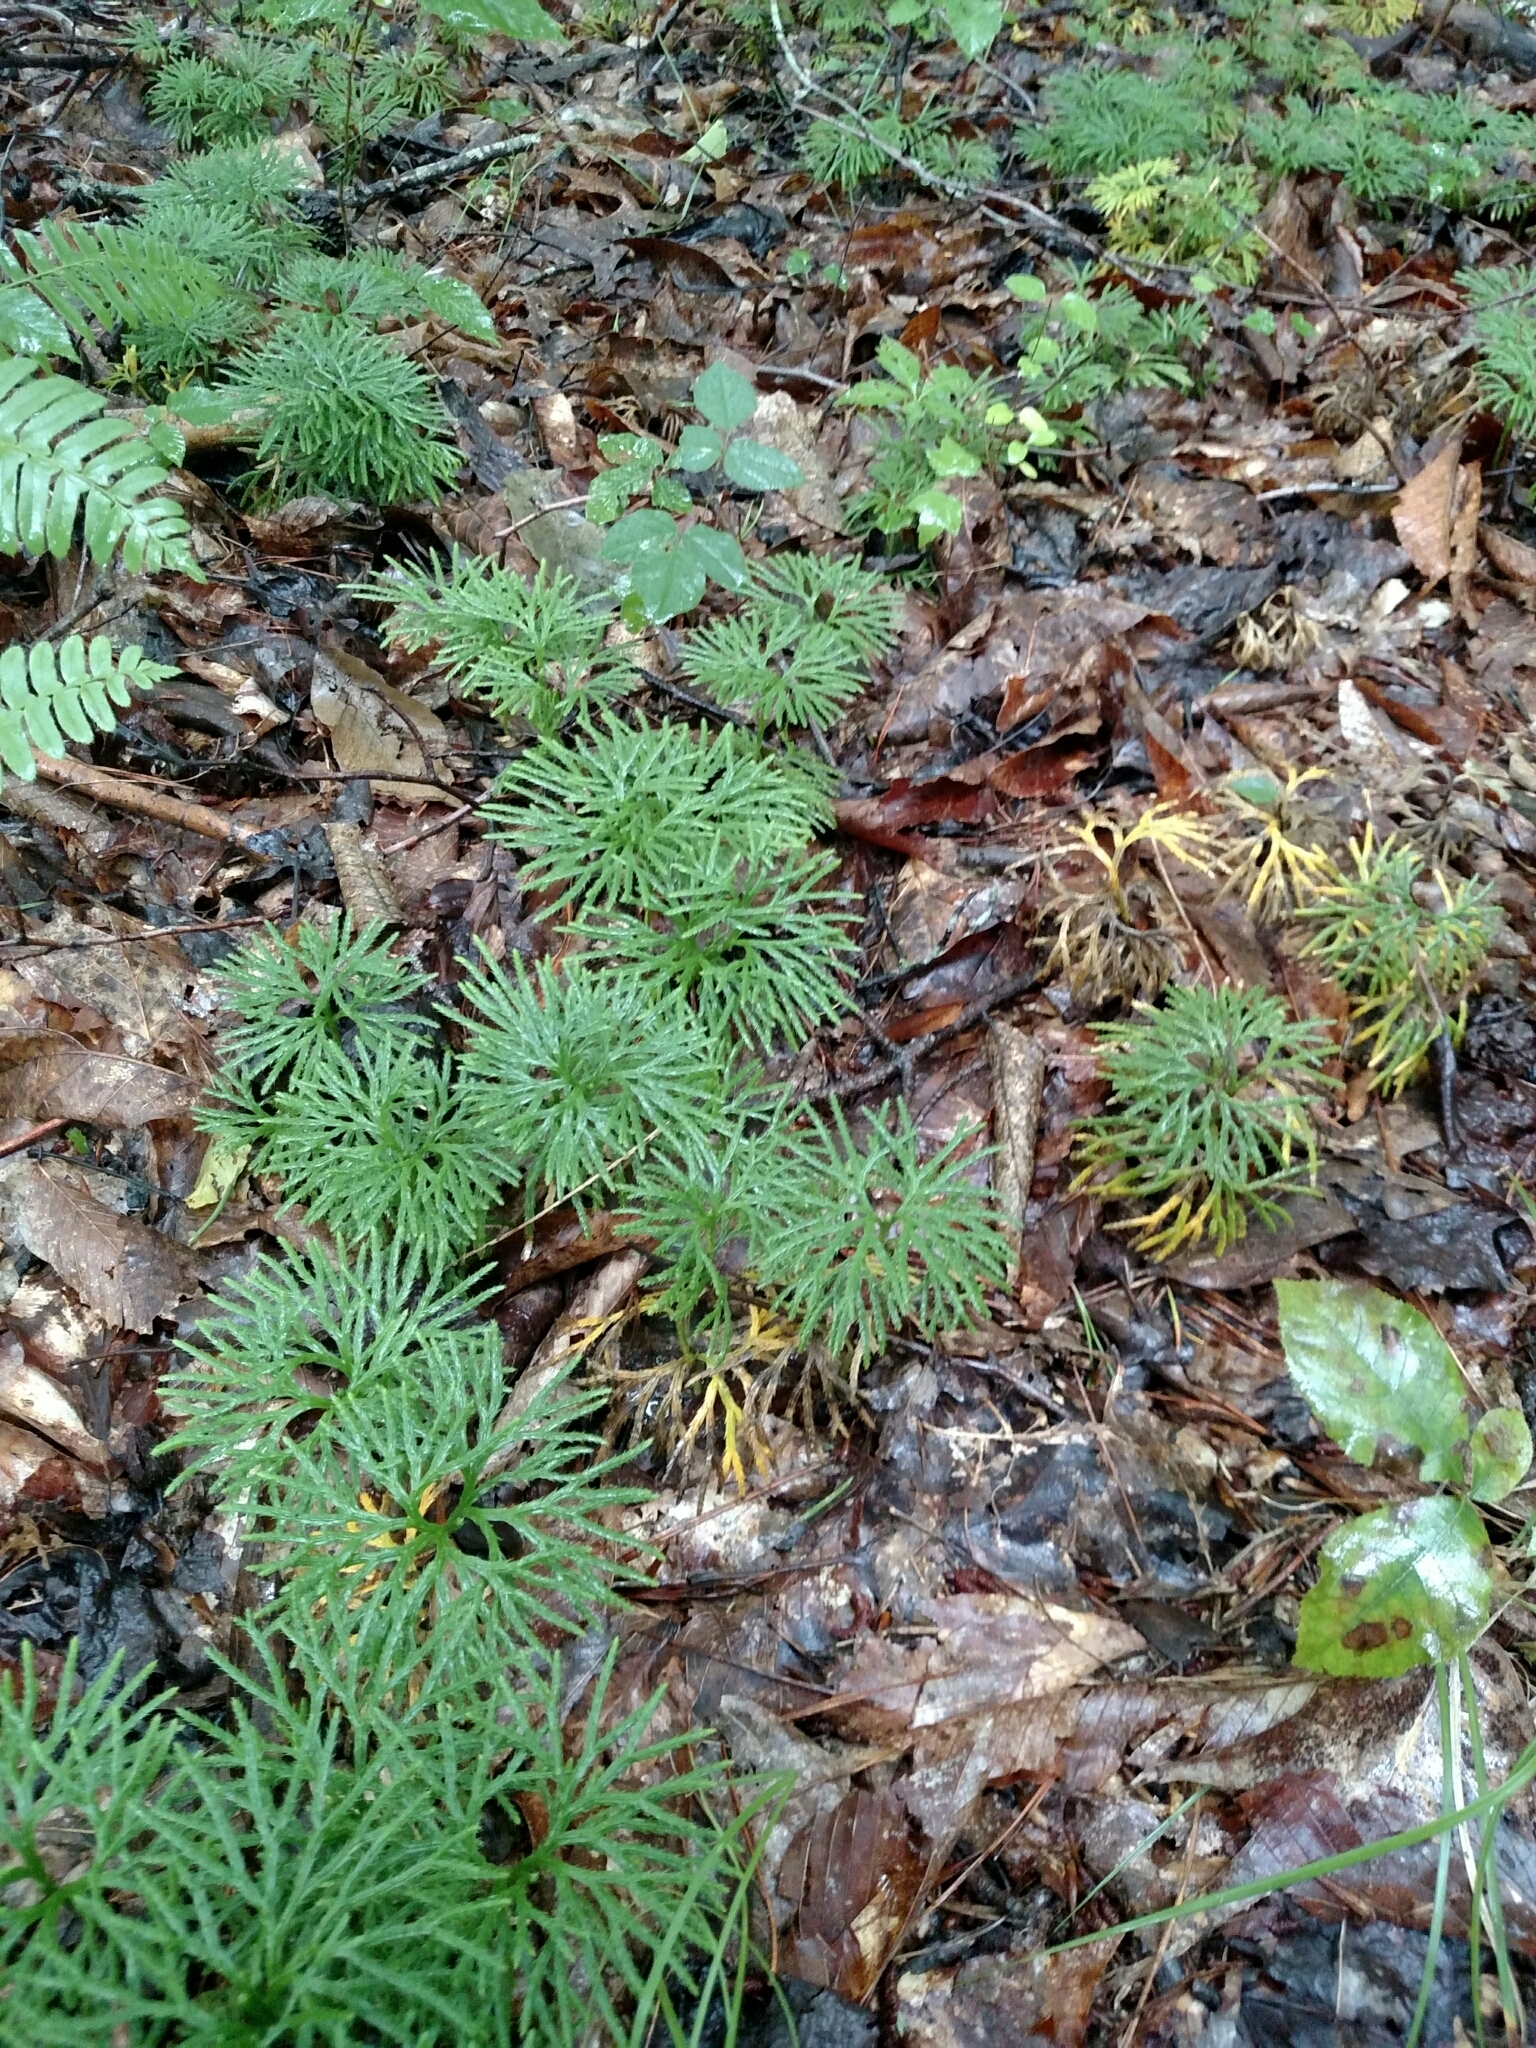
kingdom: Plantae
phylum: Tracheophyta
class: Lycopodiopsida
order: Lycopodiales
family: Lycopodiaceae
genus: Diphasiastrum
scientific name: Diphasiastrum digitatum
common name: Southern running-pine
